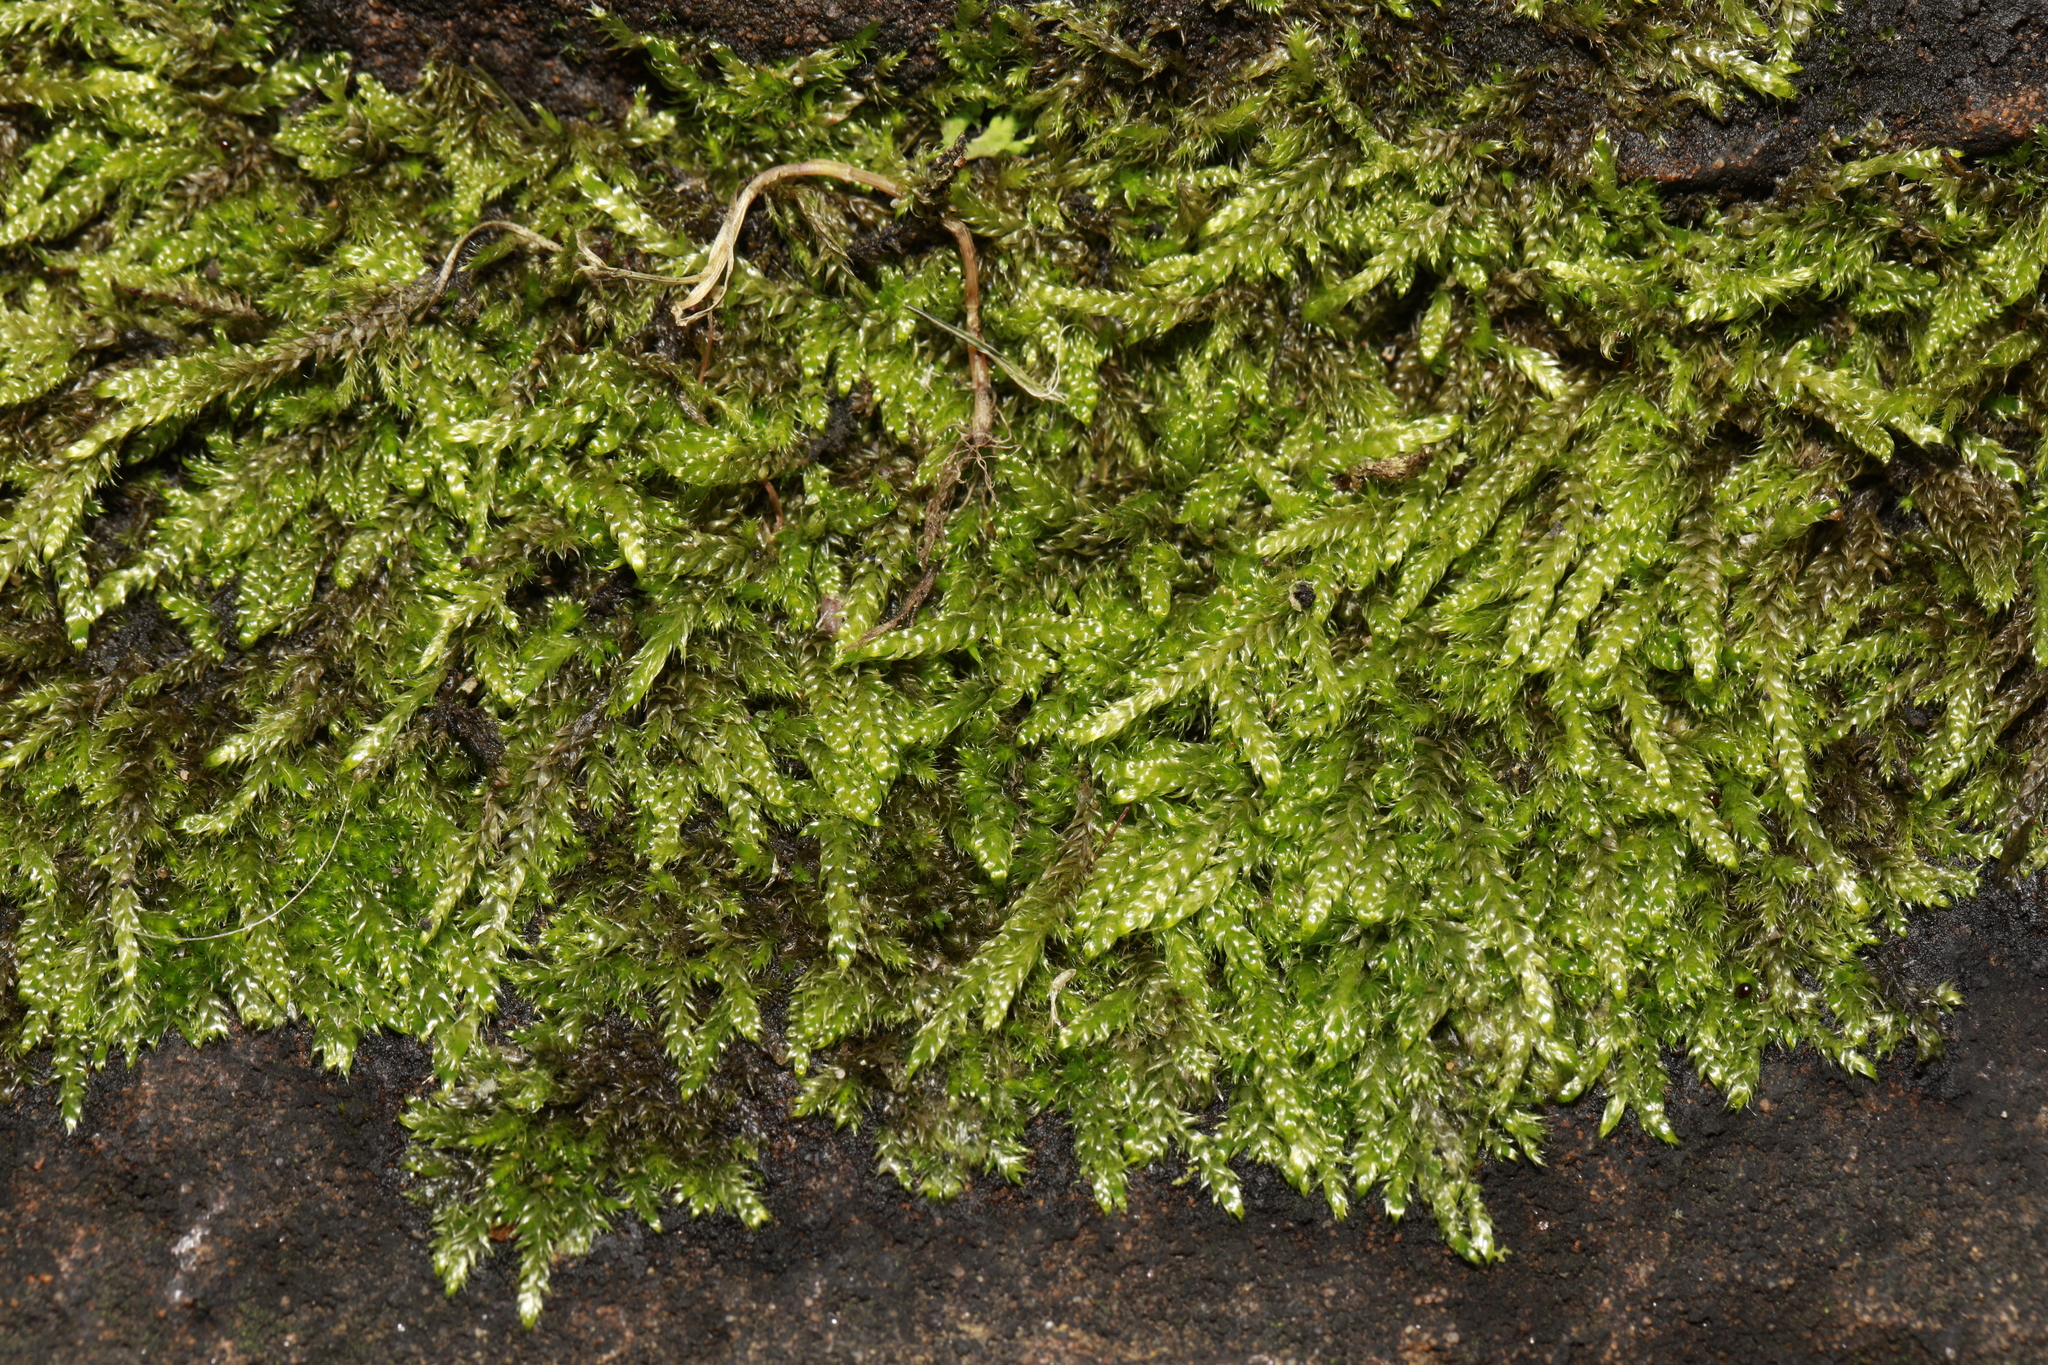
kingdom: Plantae
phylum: Bryophyta
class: Bryopsida
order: Hypnales
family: Hypnaceae
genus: Hypnum
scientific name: Hypnum cupressiforme
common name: Cypress-leaved plait-moss
